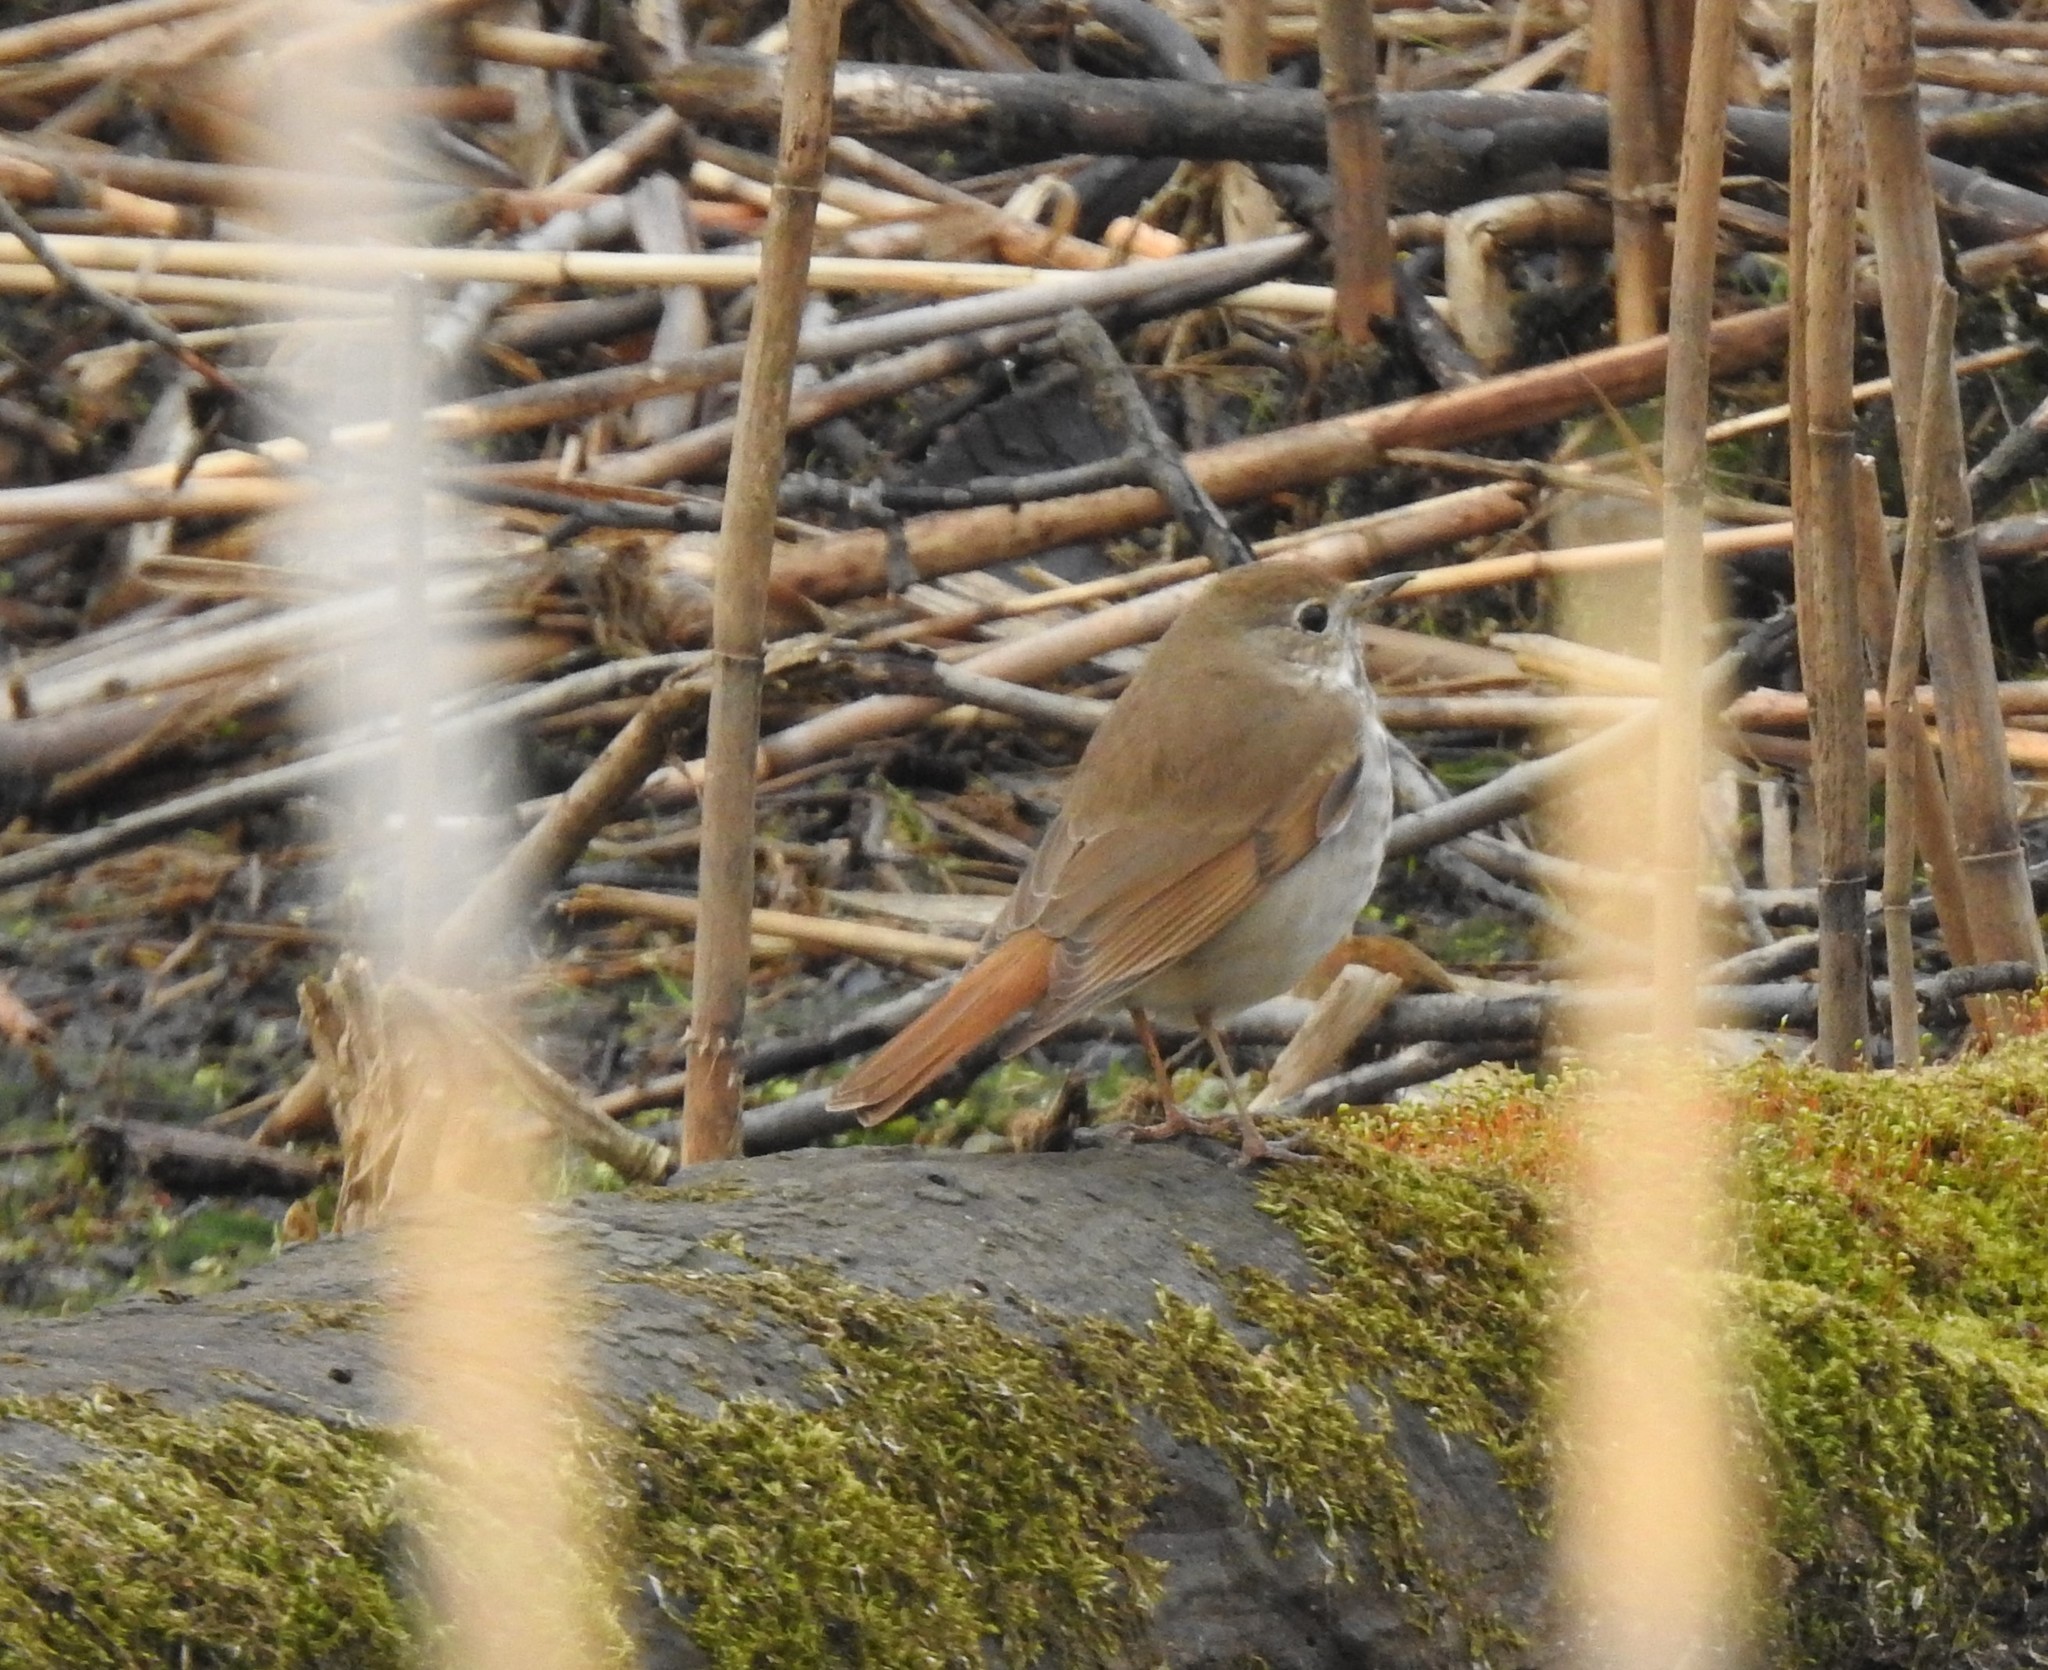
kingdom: Animalia
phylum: Chordata
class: Aves
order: Passeriformes
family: Turdidae
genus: Catharus
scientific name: Catharus guttatus
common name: Hermit thrush
